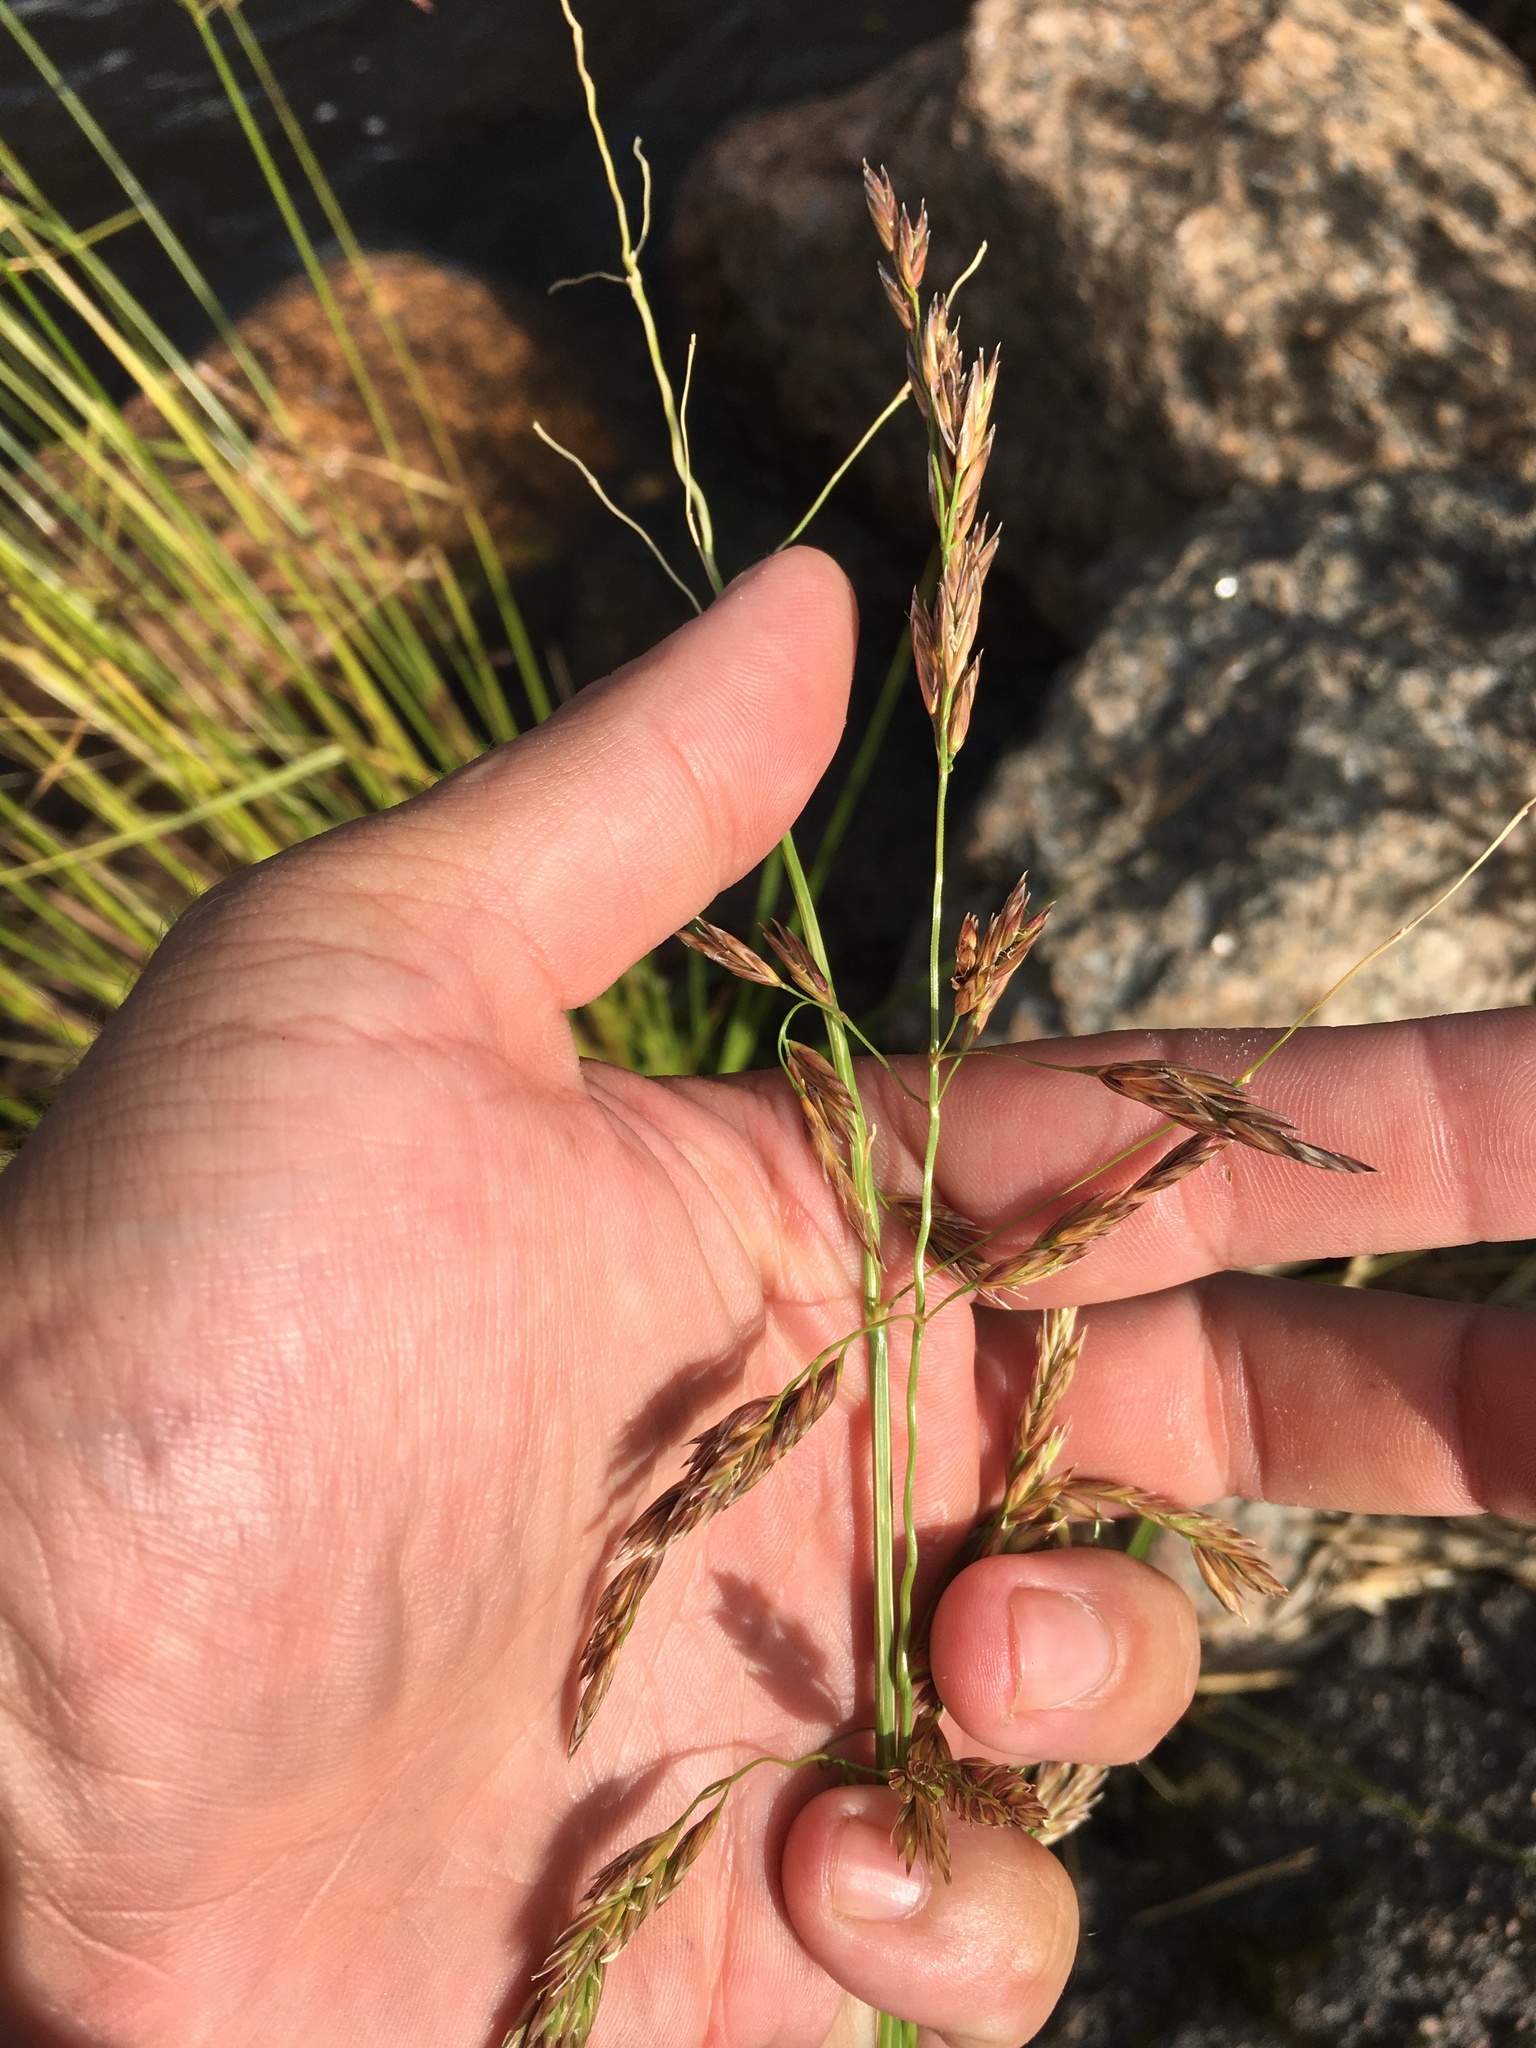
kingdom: Plantae
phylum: Tracheophyta
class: Liliopsida
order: Poales
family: Poaceae
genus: Lolium
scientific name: Lolium arundinaceum
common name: Reed fescue
